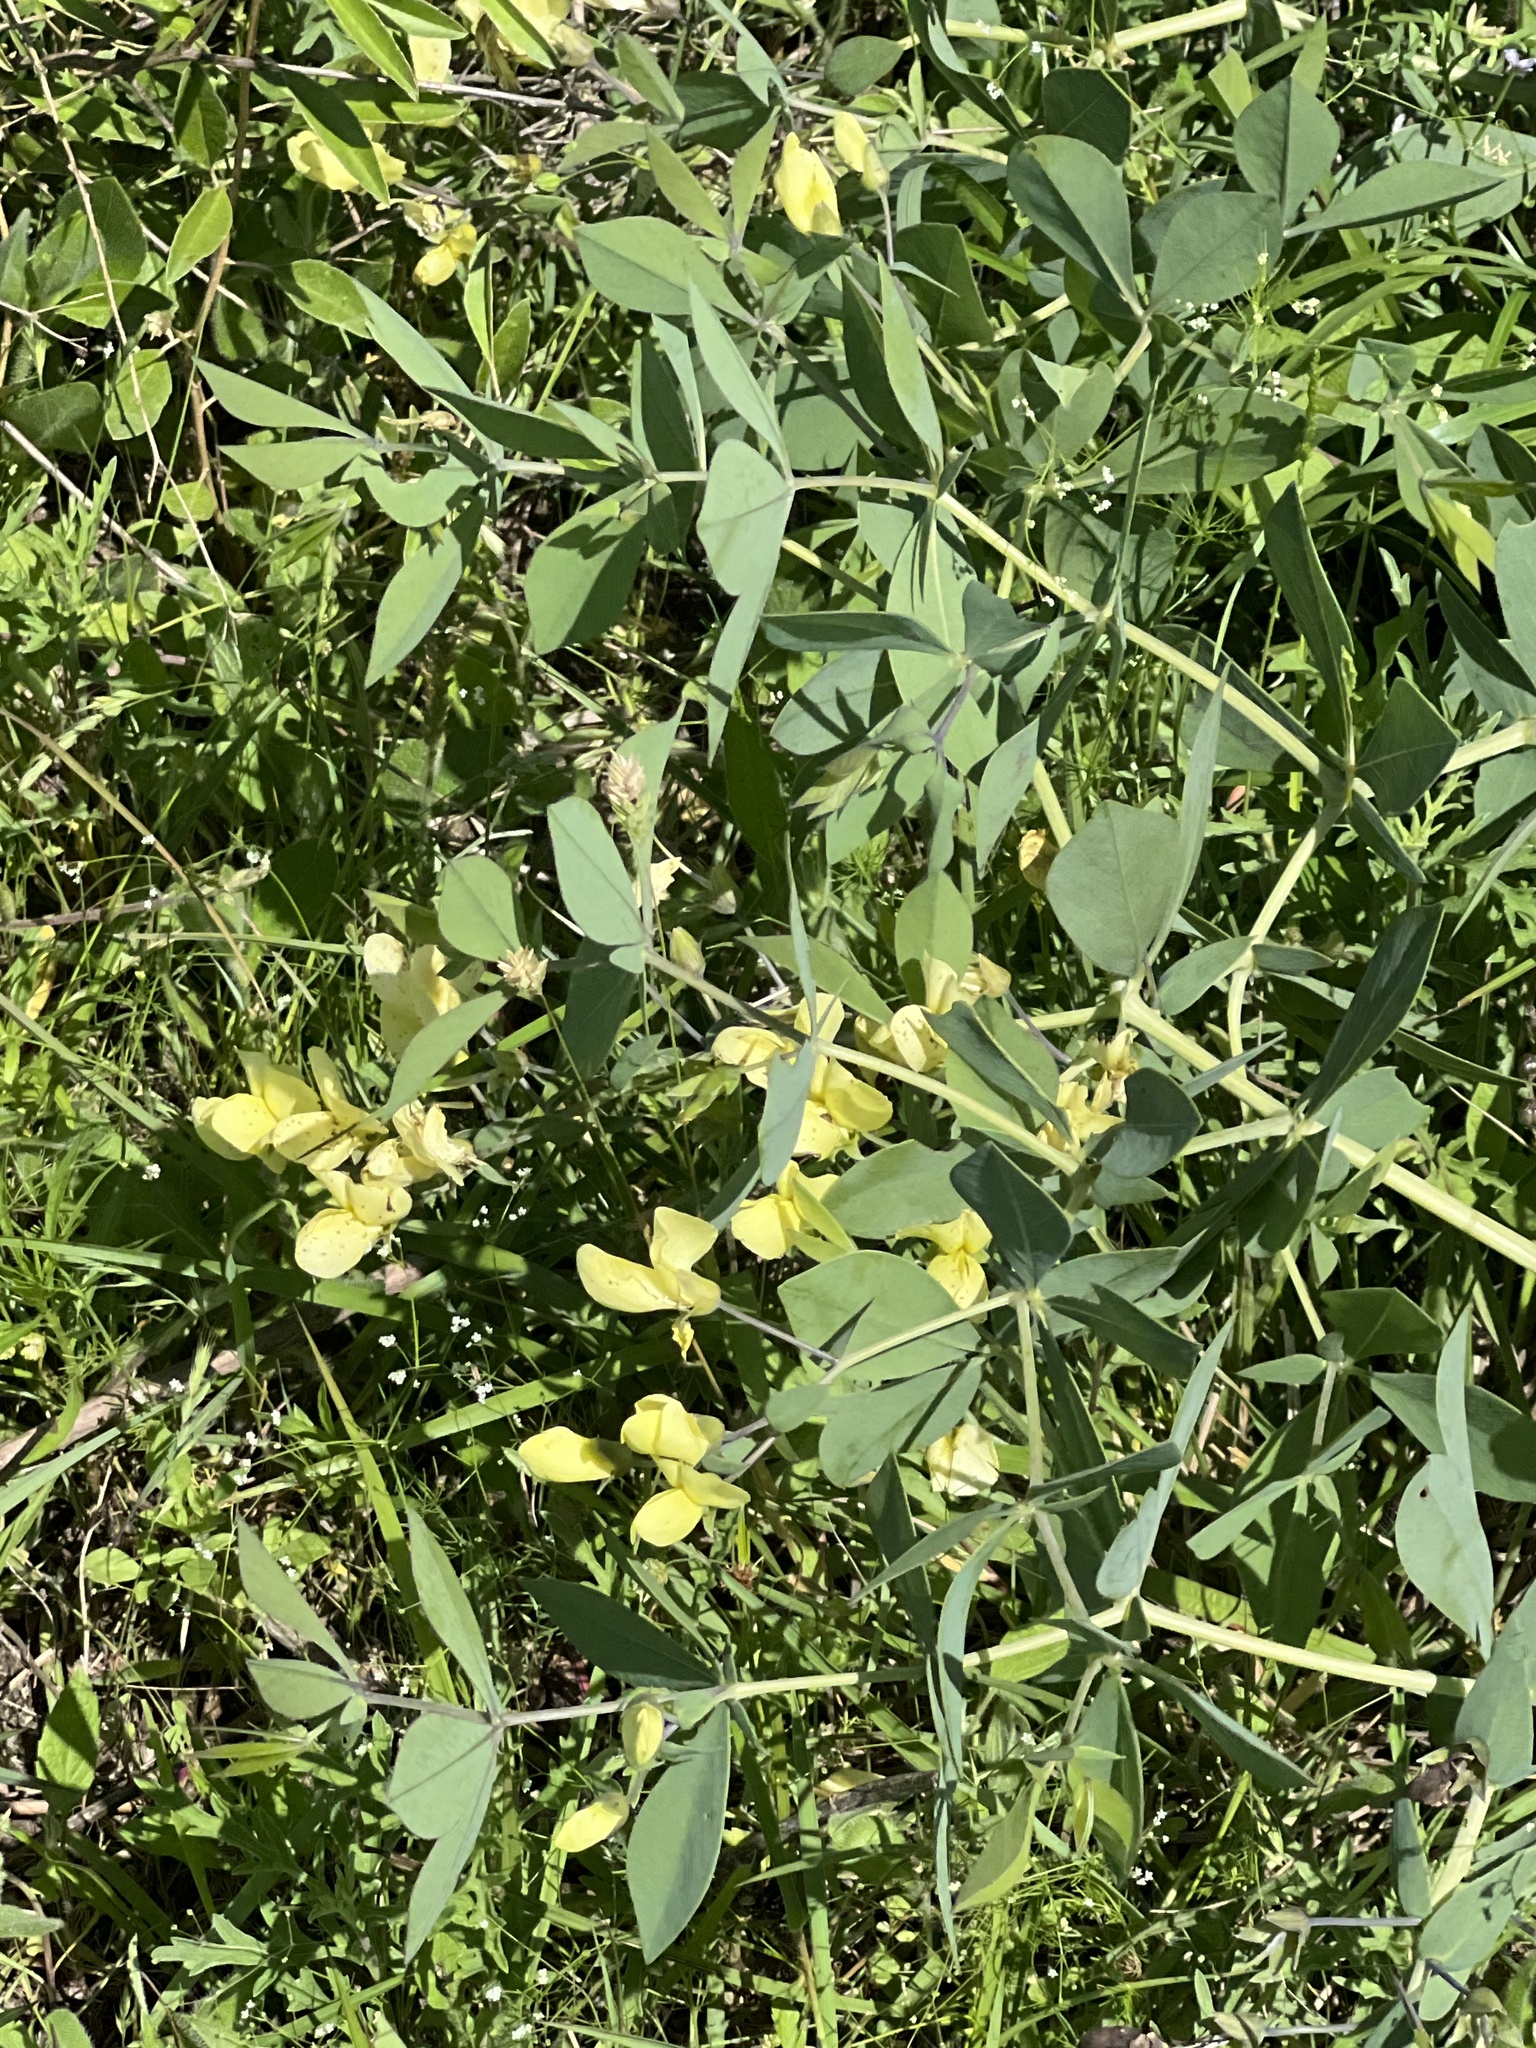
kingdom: Plantae
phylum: Tracheophyta
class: Magnoliopsida
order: Fabales
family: Fabaceae
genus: Baptisia
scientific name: Baptisia bracteata
